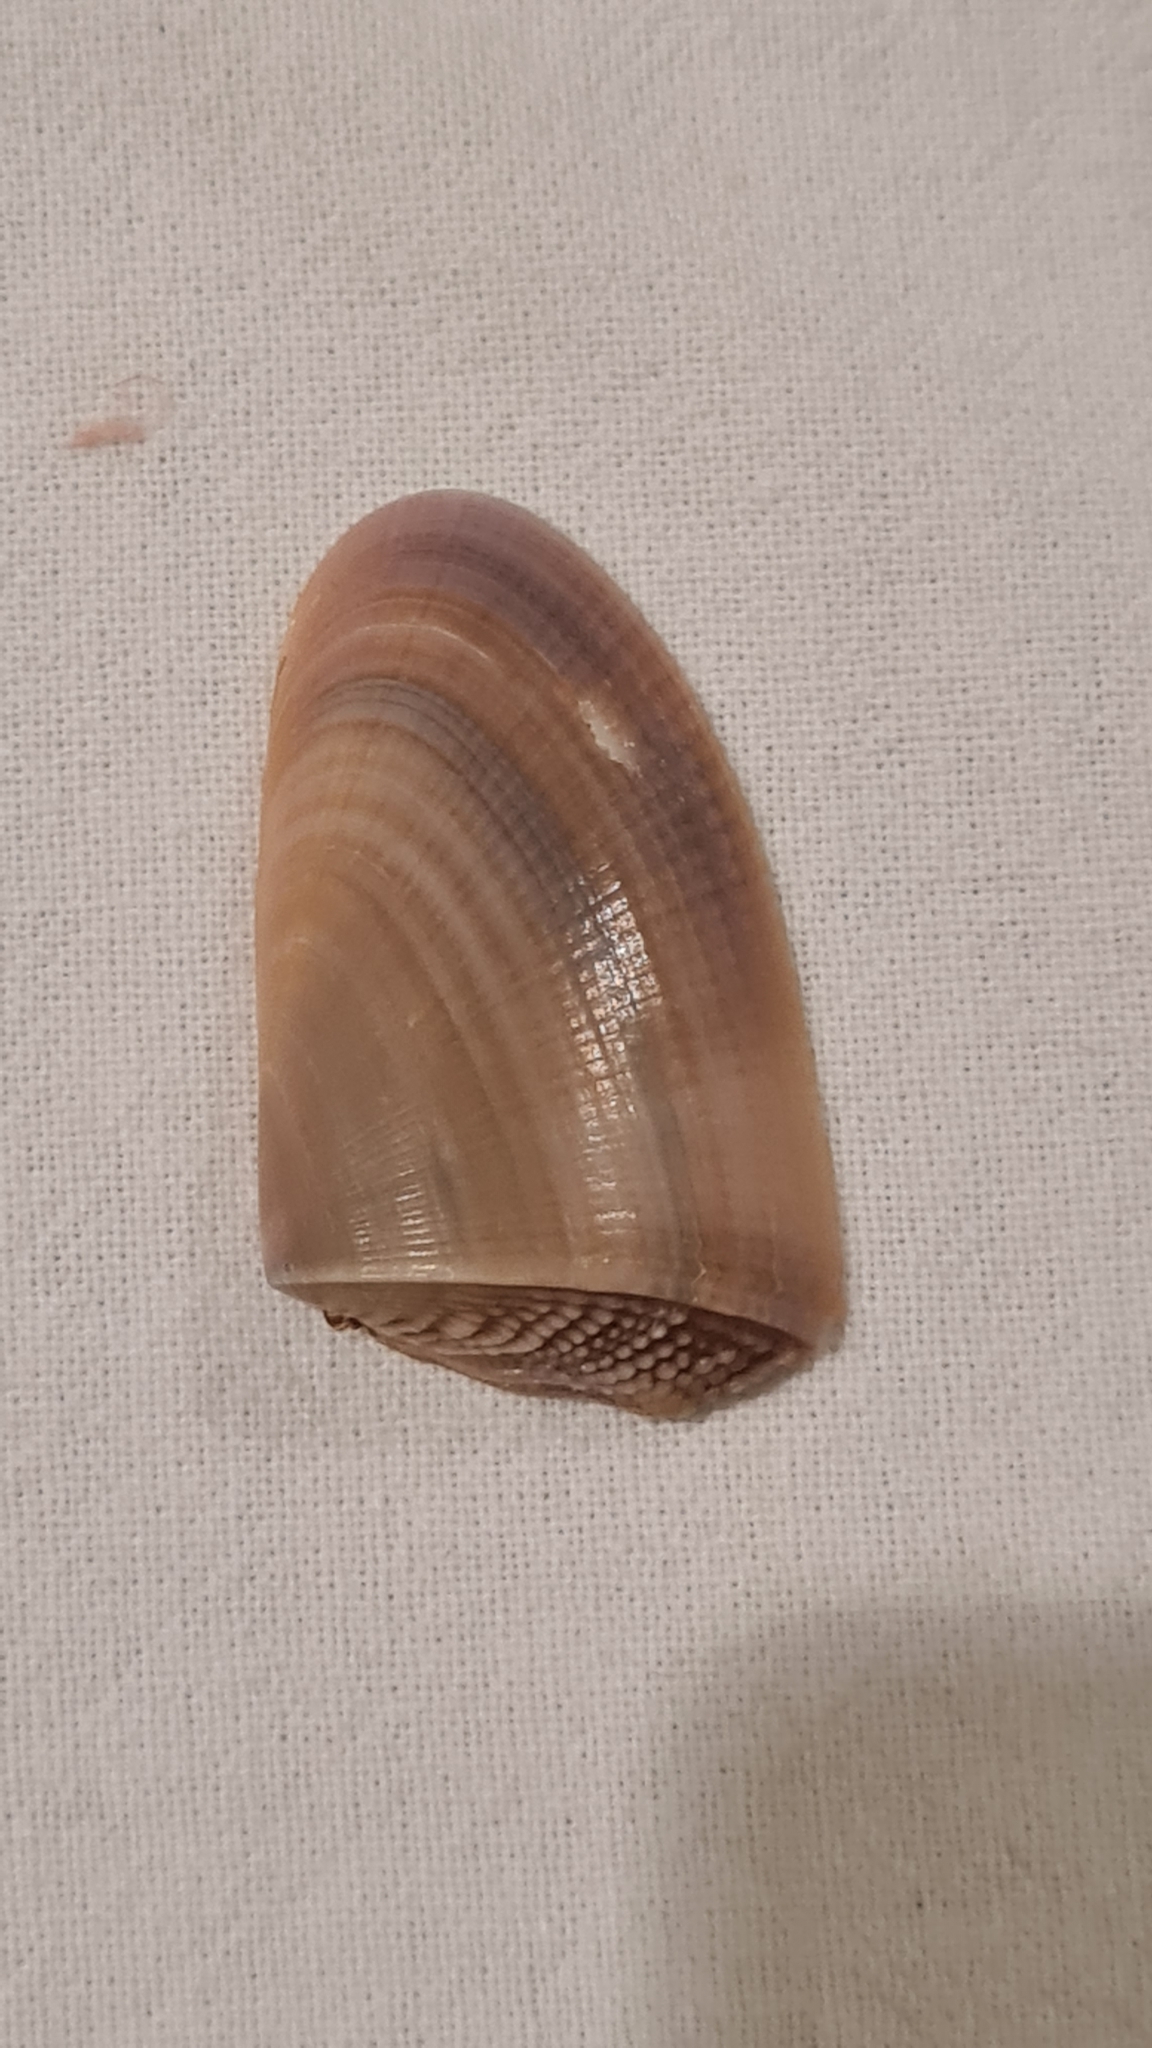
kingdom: Animalia
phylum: Mollusca
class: Bivalvia
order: Cardiida
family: Donacidae
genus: Donax
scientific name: Donax hanleyanus
